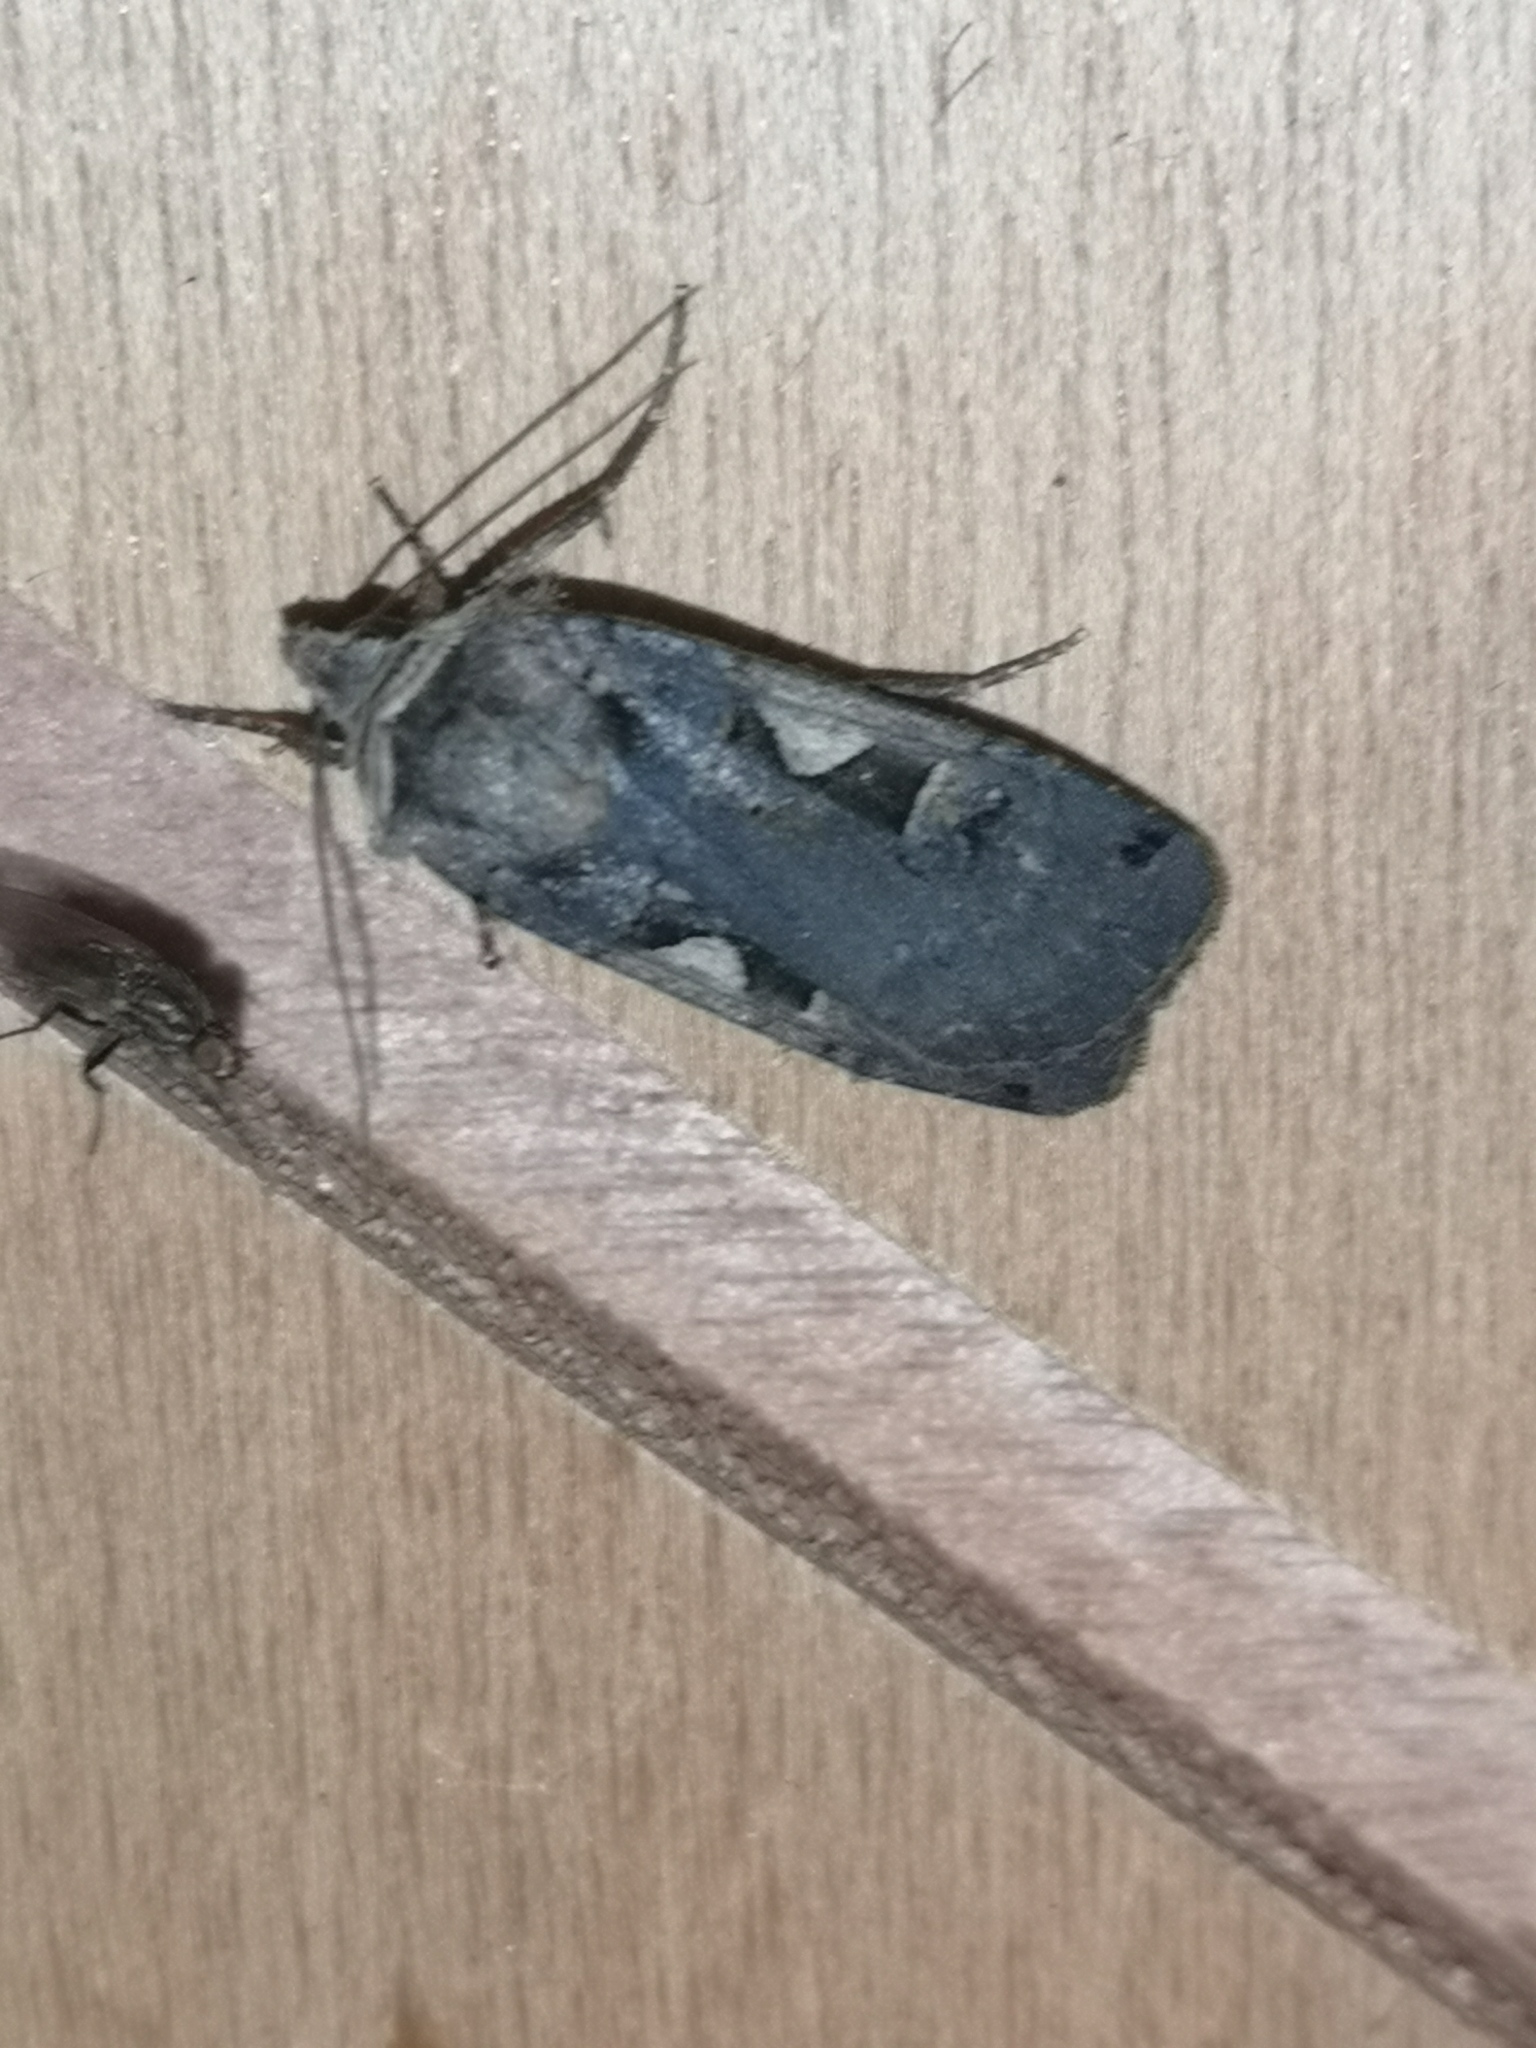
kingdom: Animalia
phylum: Arthropoda
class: Insecta
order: Lepidoptera
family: Noctuidae
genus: Xestia
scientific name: Xestia c-nigrum
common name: Setaceous hebrew character
